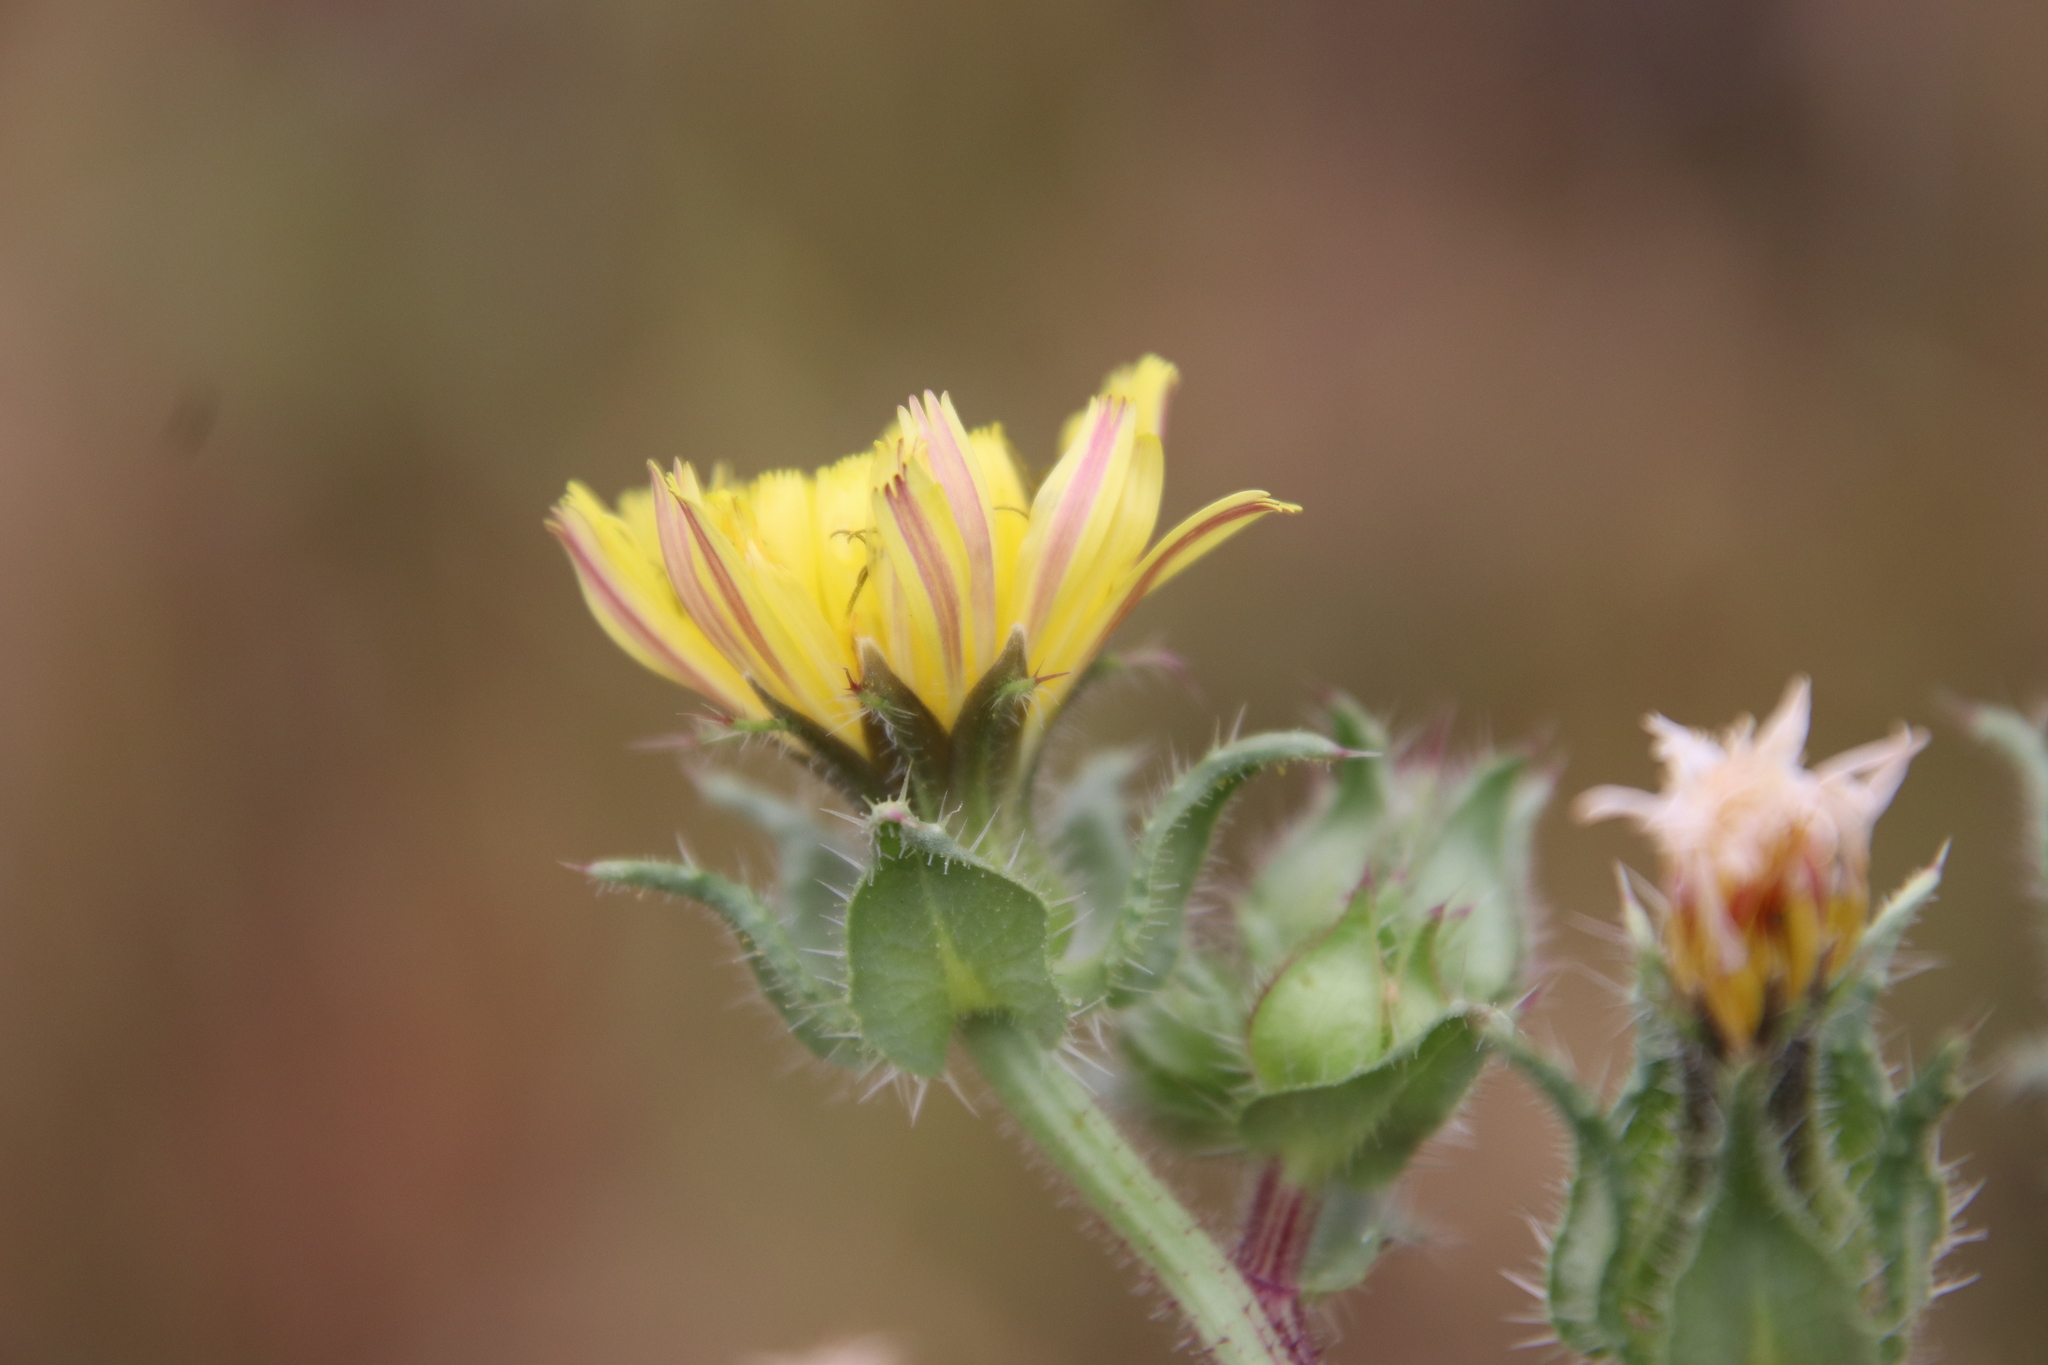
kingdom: Plantae
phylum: Tracheophyta
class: Magnoliopsida
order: Asterales
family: Asteraceae
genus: Helminthotheca
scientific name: Helminthotheca echioides
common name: Ox-tongue
